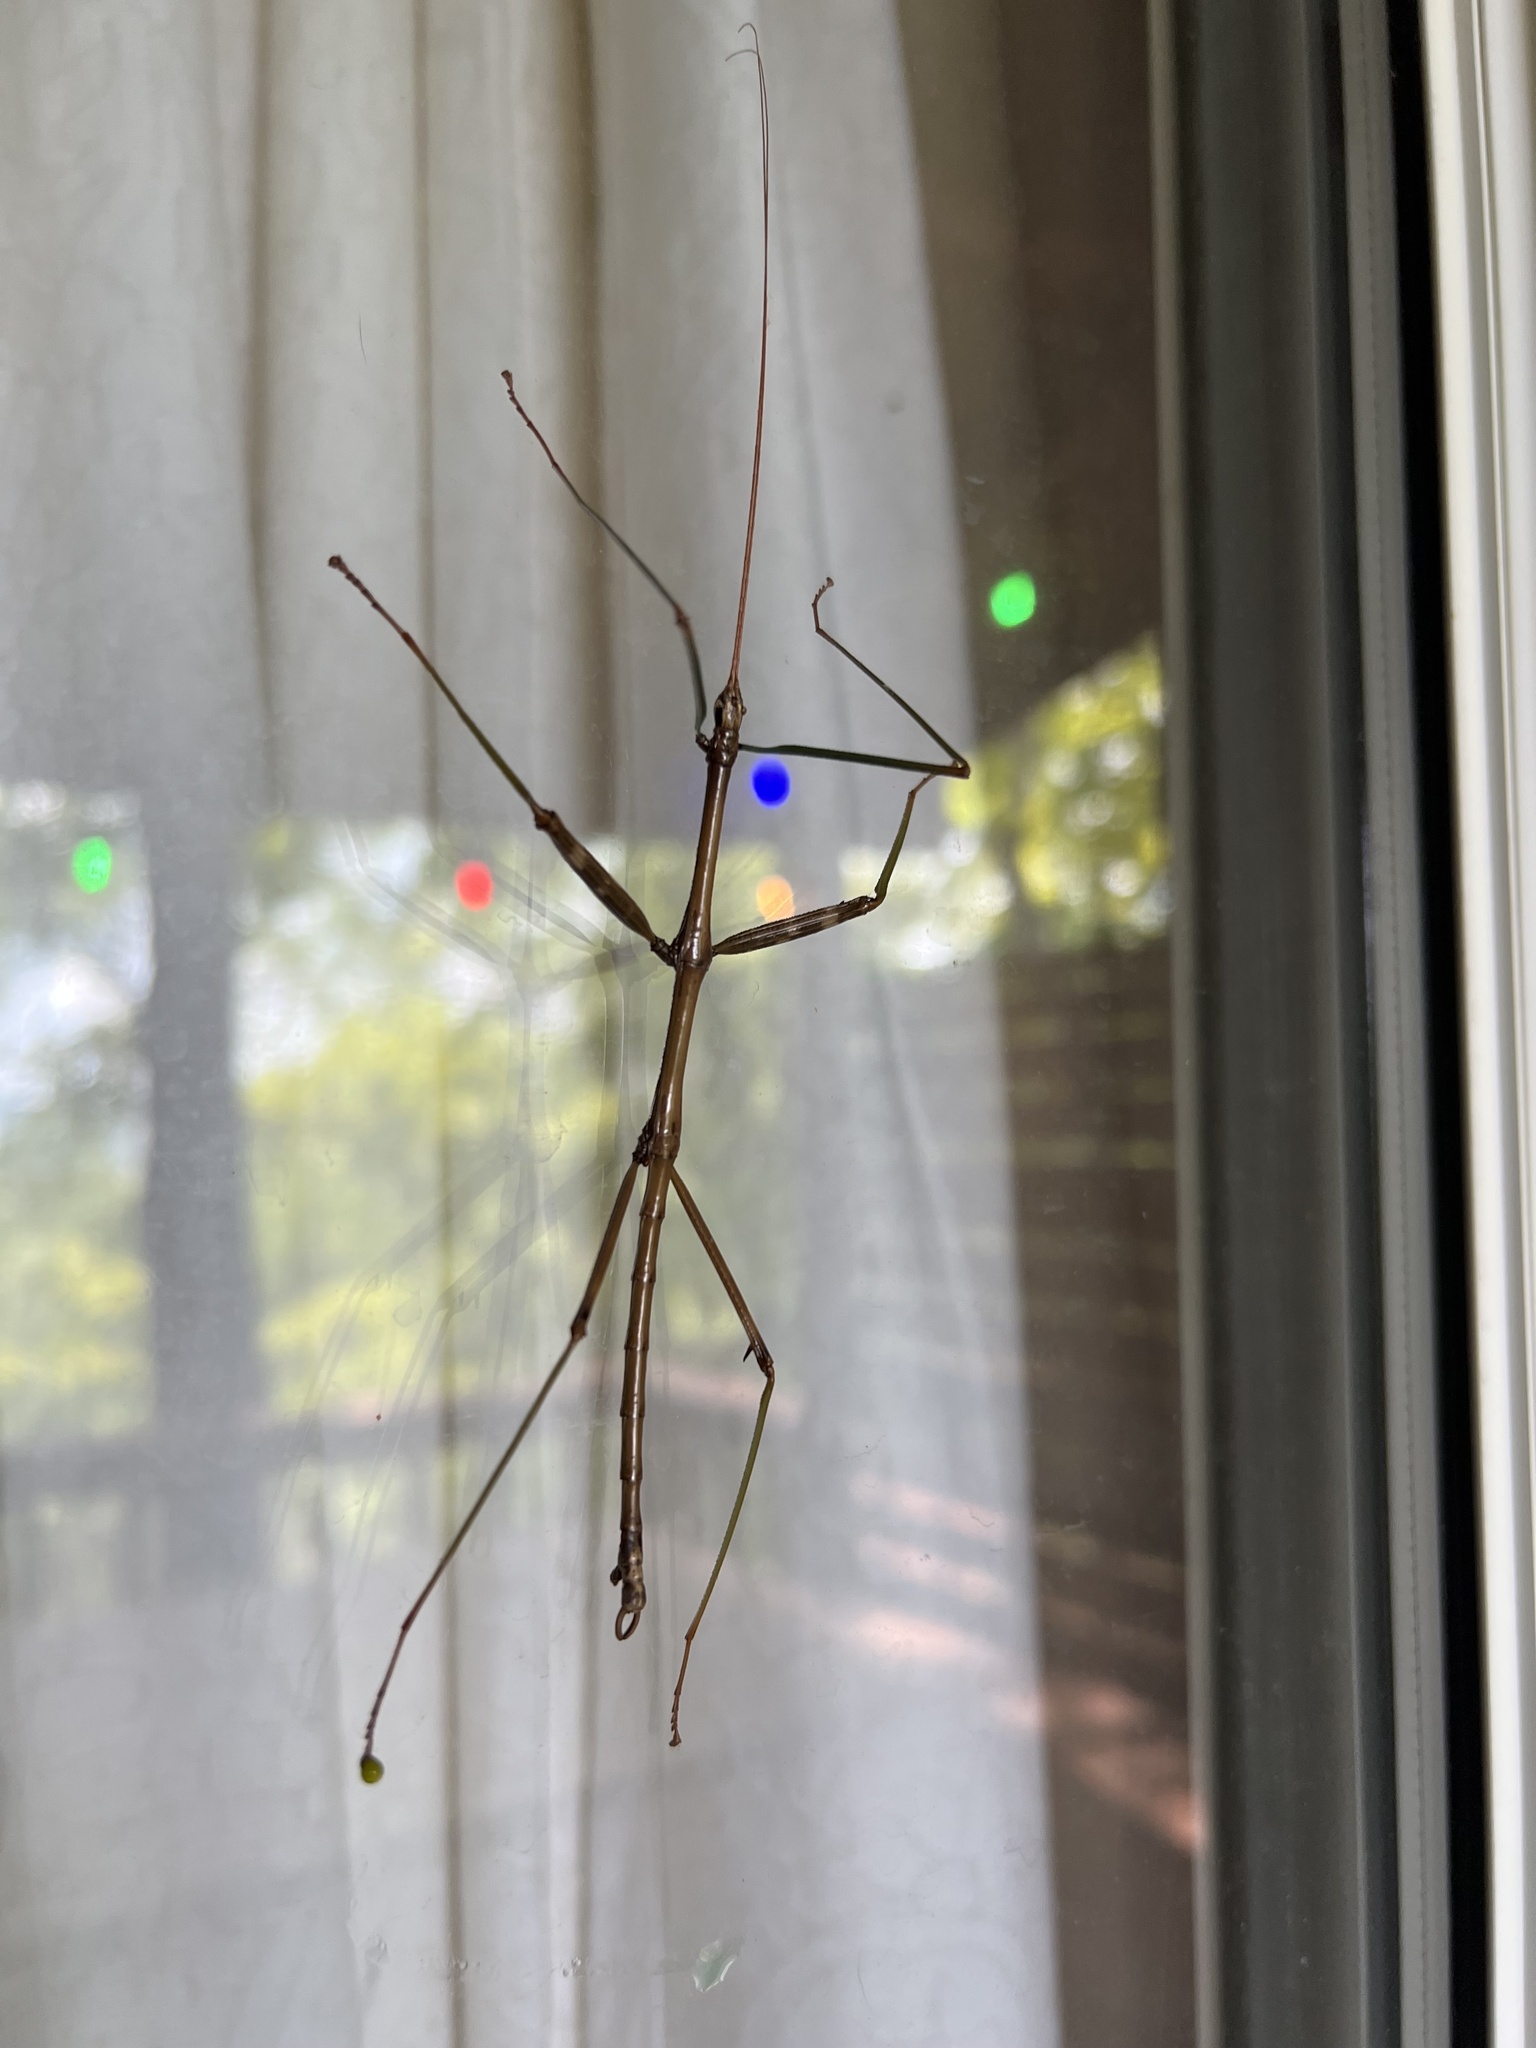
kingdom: Animalia
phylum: Arthropoda
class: Insecta
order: Phasmida
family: Diapheromeridae
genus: Diapheromera
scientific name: Diapheromera femorata
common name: Common american walkingstick
